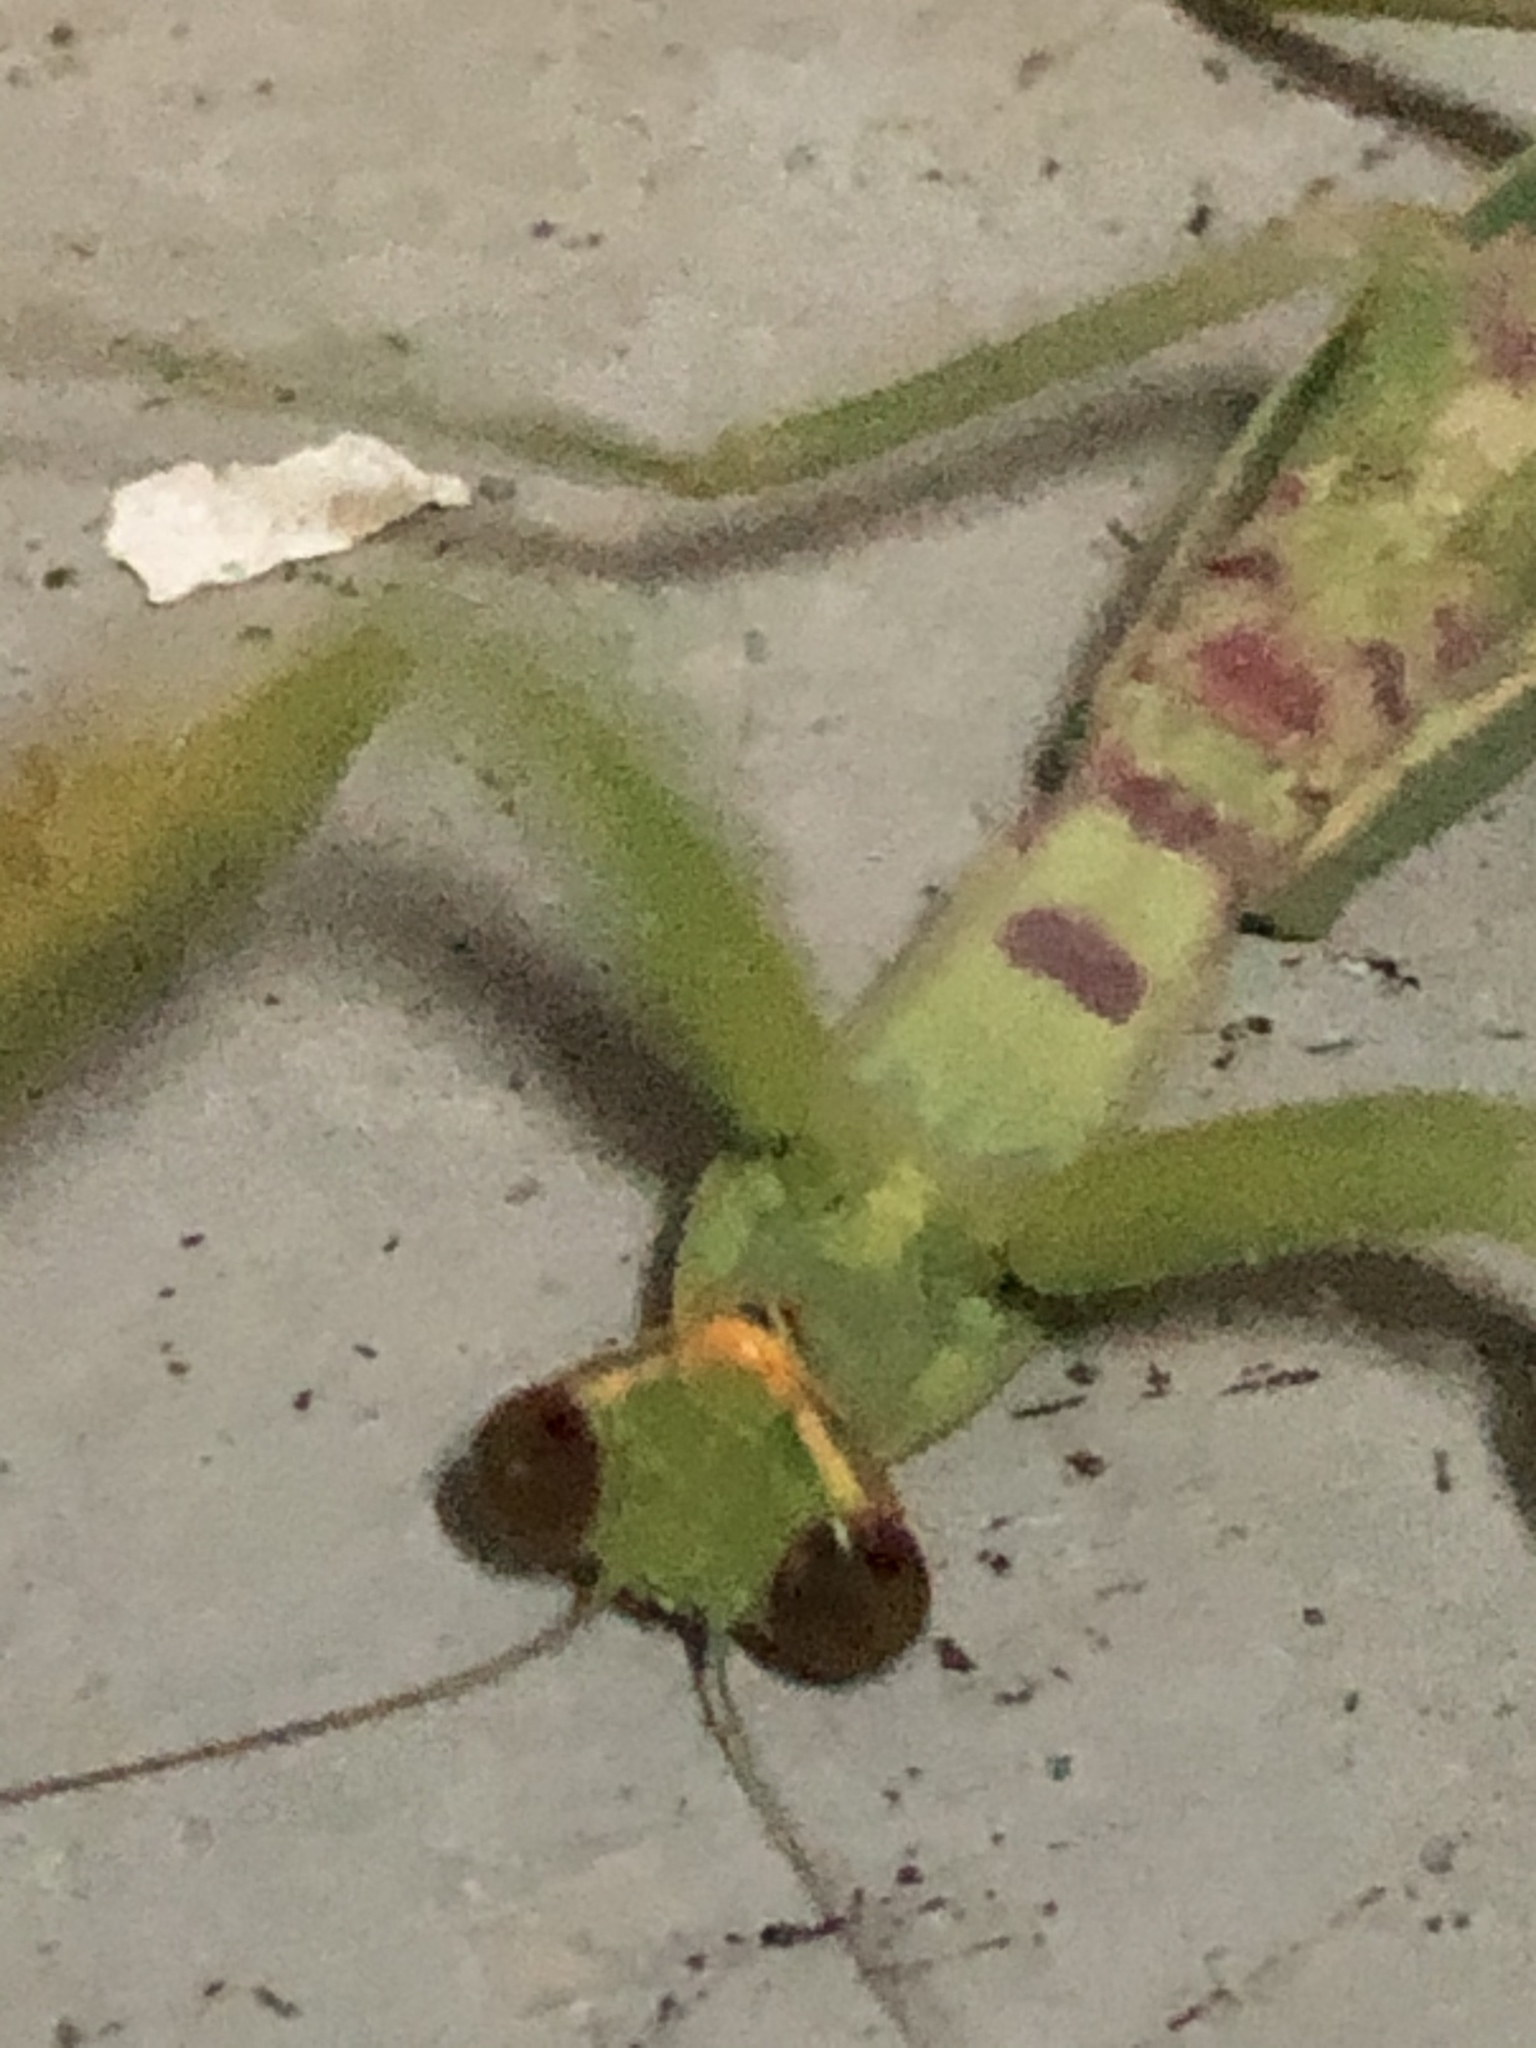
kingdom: Animalia
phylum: Arthropoda
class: Insecta
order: Mantodea
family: Mantidae
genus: Hierodula
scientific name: Hierodula tenuidentata
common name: Giant asian mantis
